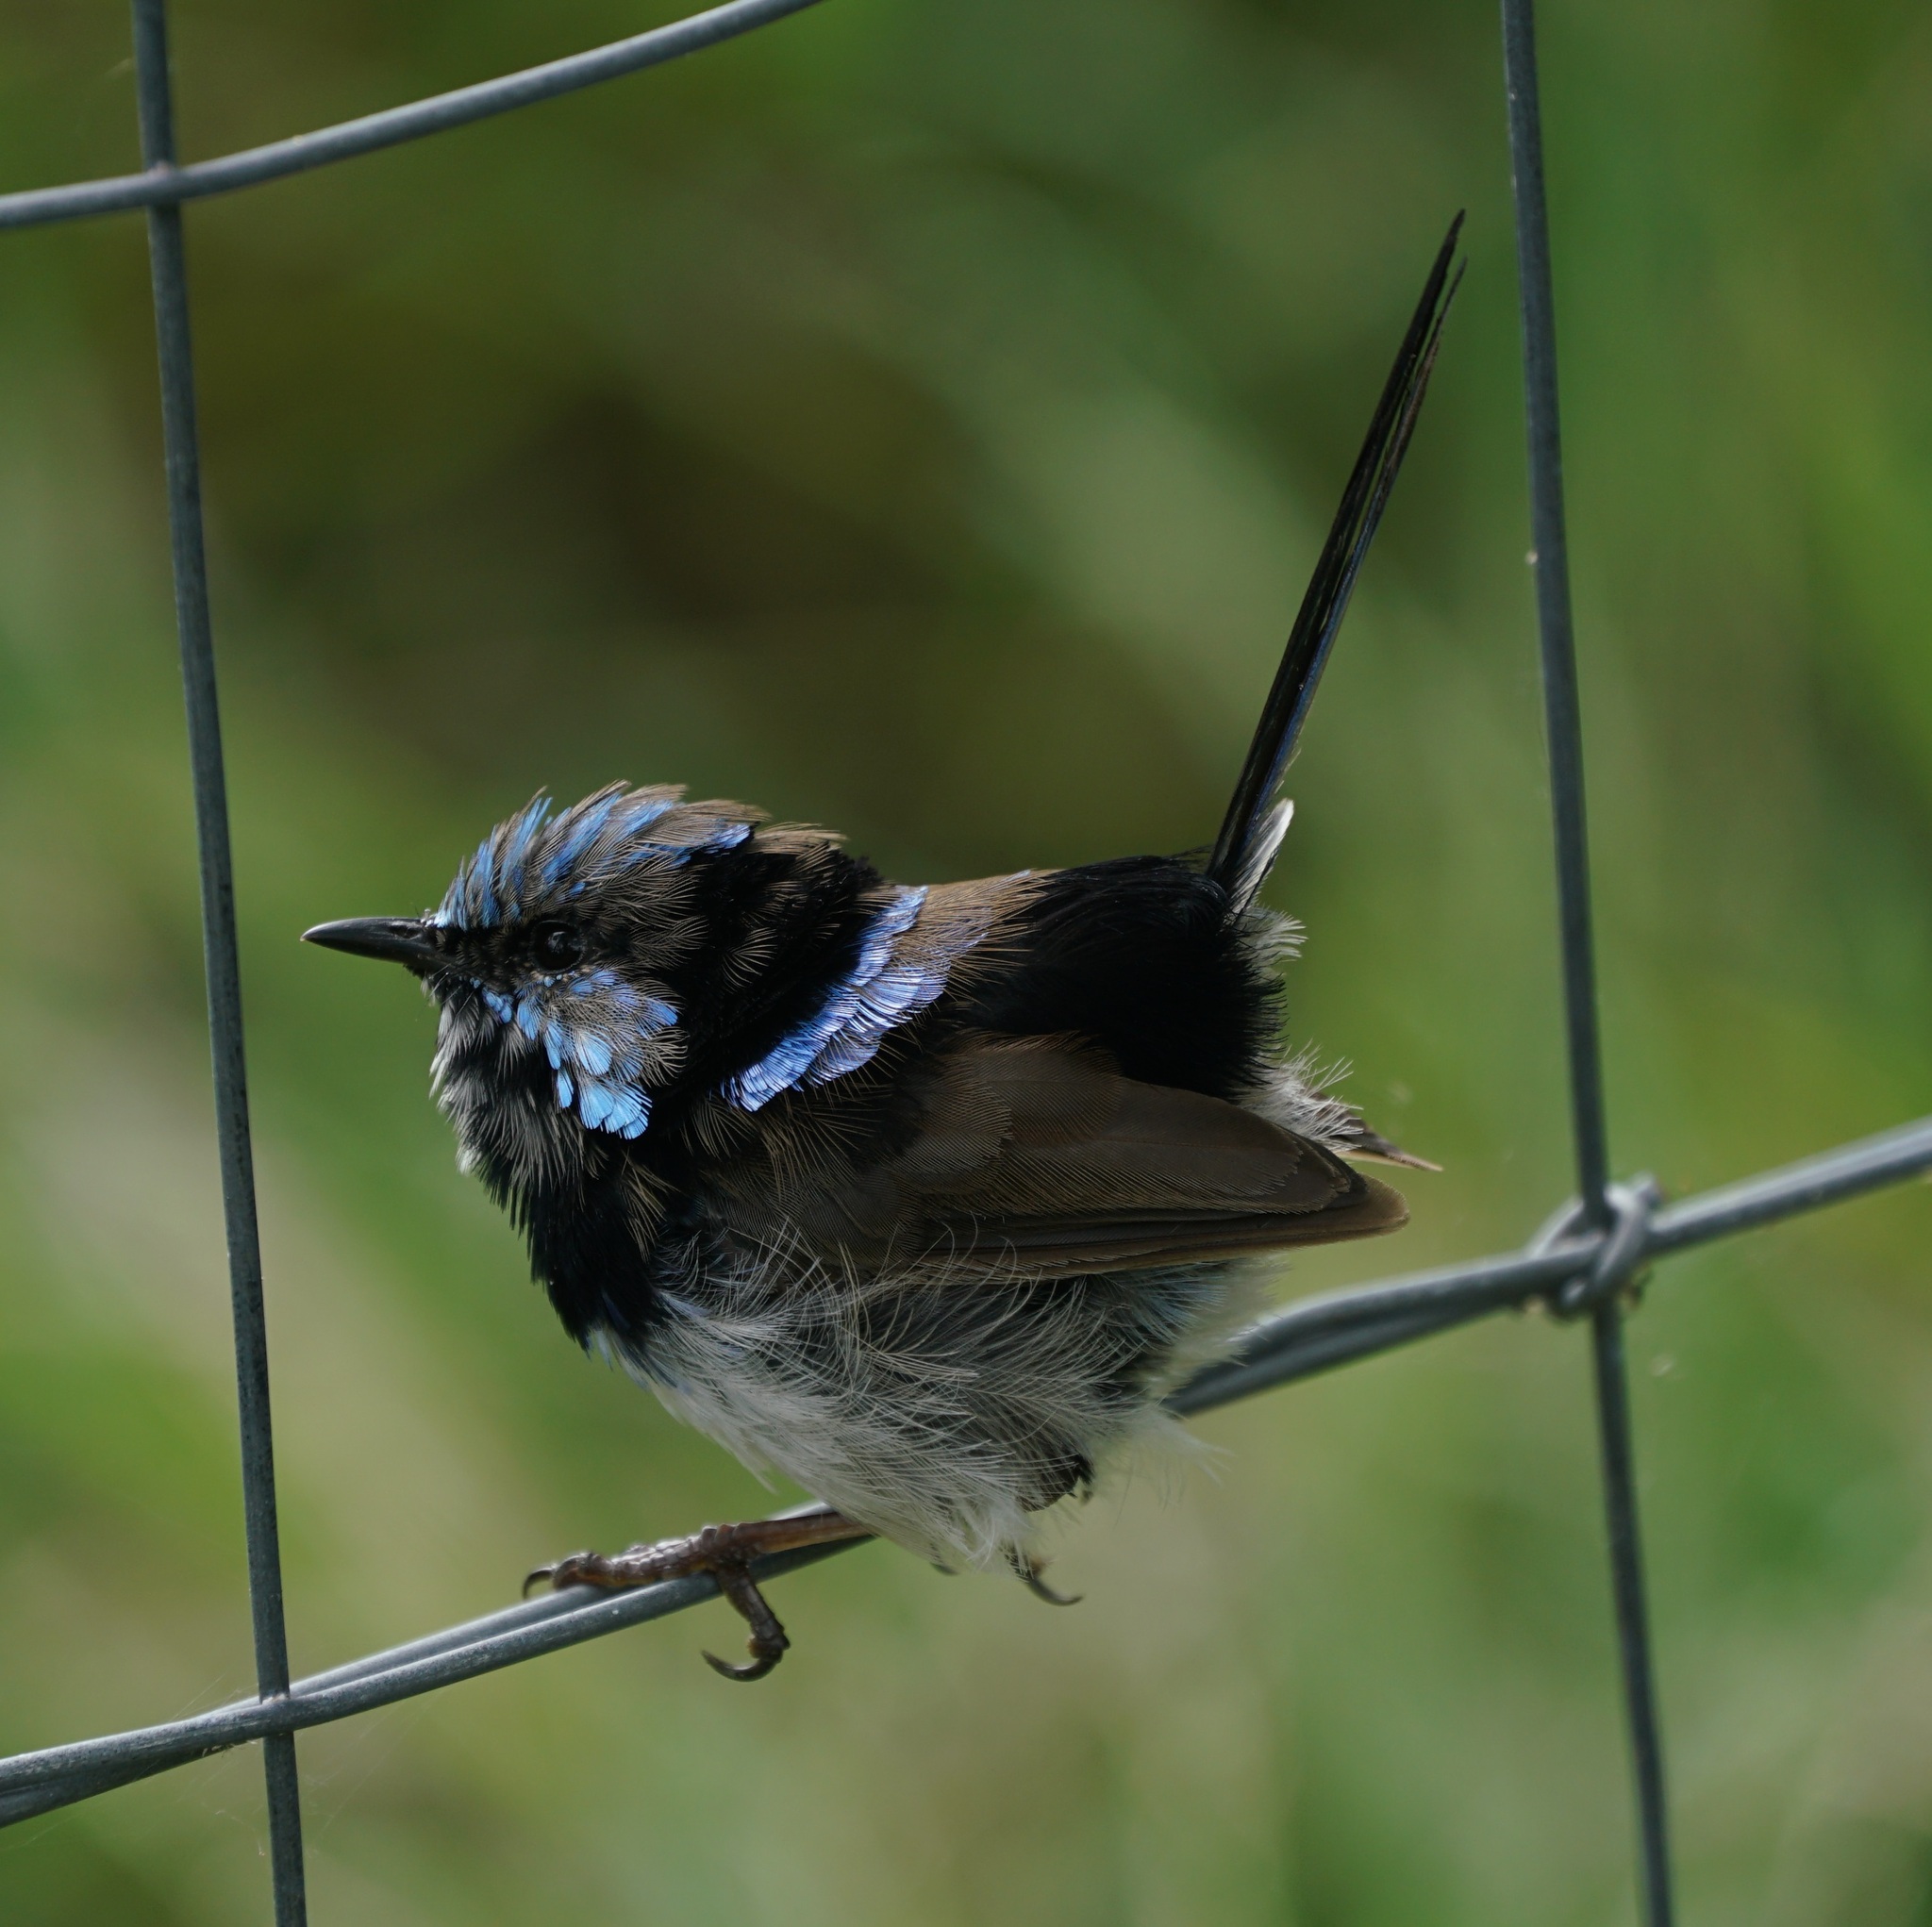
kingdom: Animalia
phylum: Chordata
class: Aves
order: Passeriformes
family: Maluridae
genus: Malurus
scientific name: Malurus cyaneus
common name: Superb fairywren
